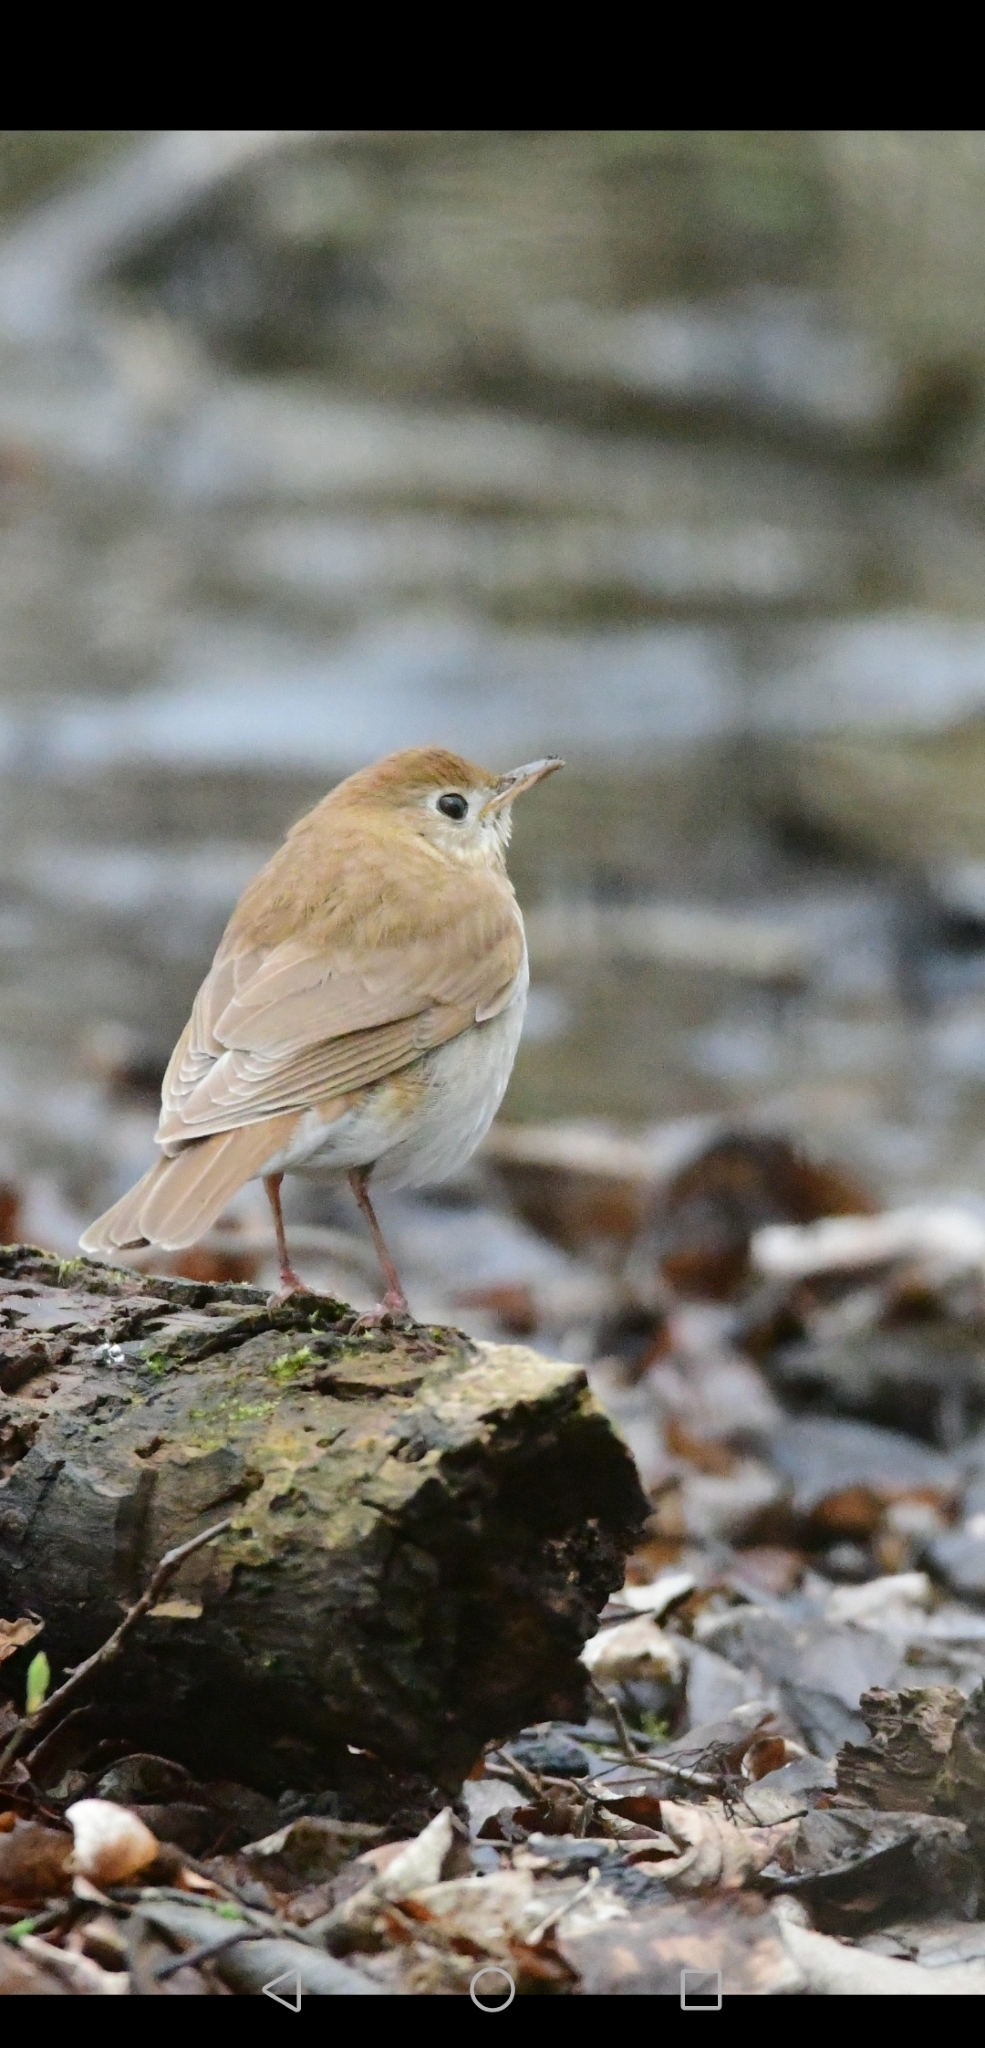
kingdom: Animalia
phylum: Chordata
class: Aves
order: Passeriformes
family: Turdidae
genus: Catharus
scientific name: Catharus fuscescens
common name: Veery
